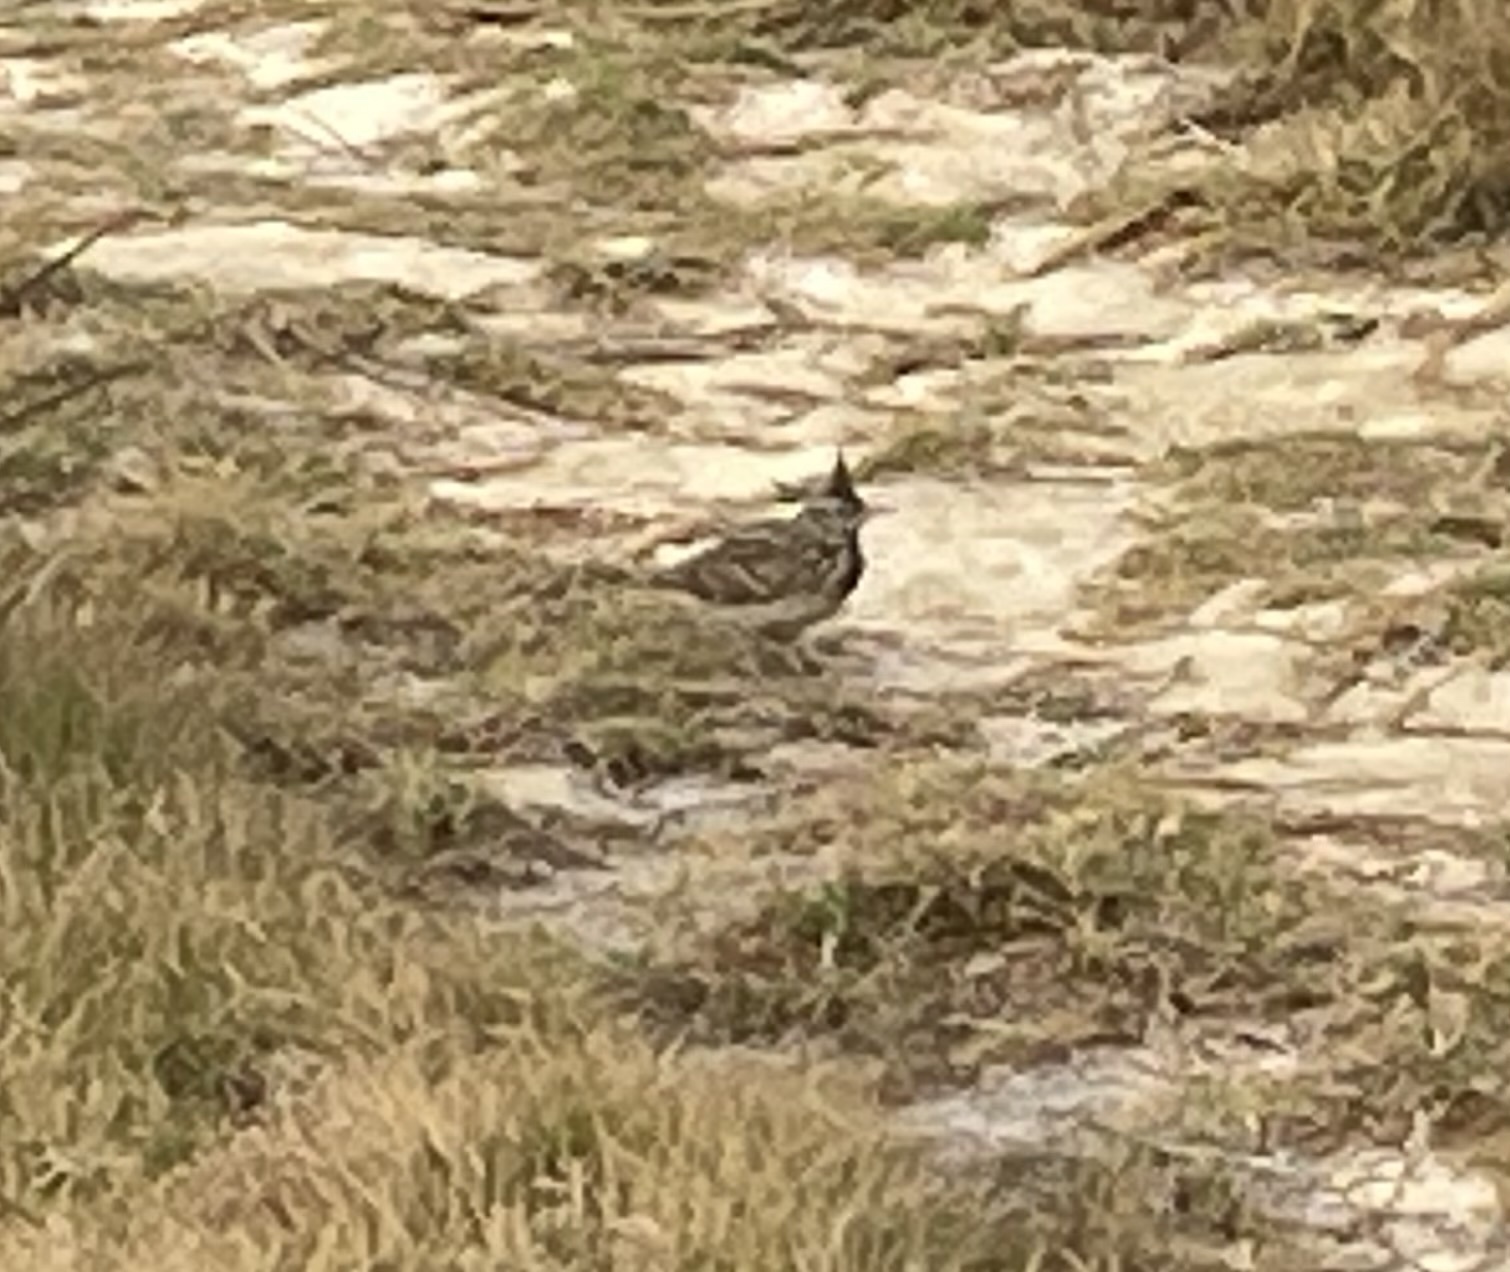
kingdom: Animalia
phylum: Chordata
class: Aves
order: Passeriformes
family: Alaudidae
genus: Galerida
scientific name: Galerida cristata
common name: Crested lark
